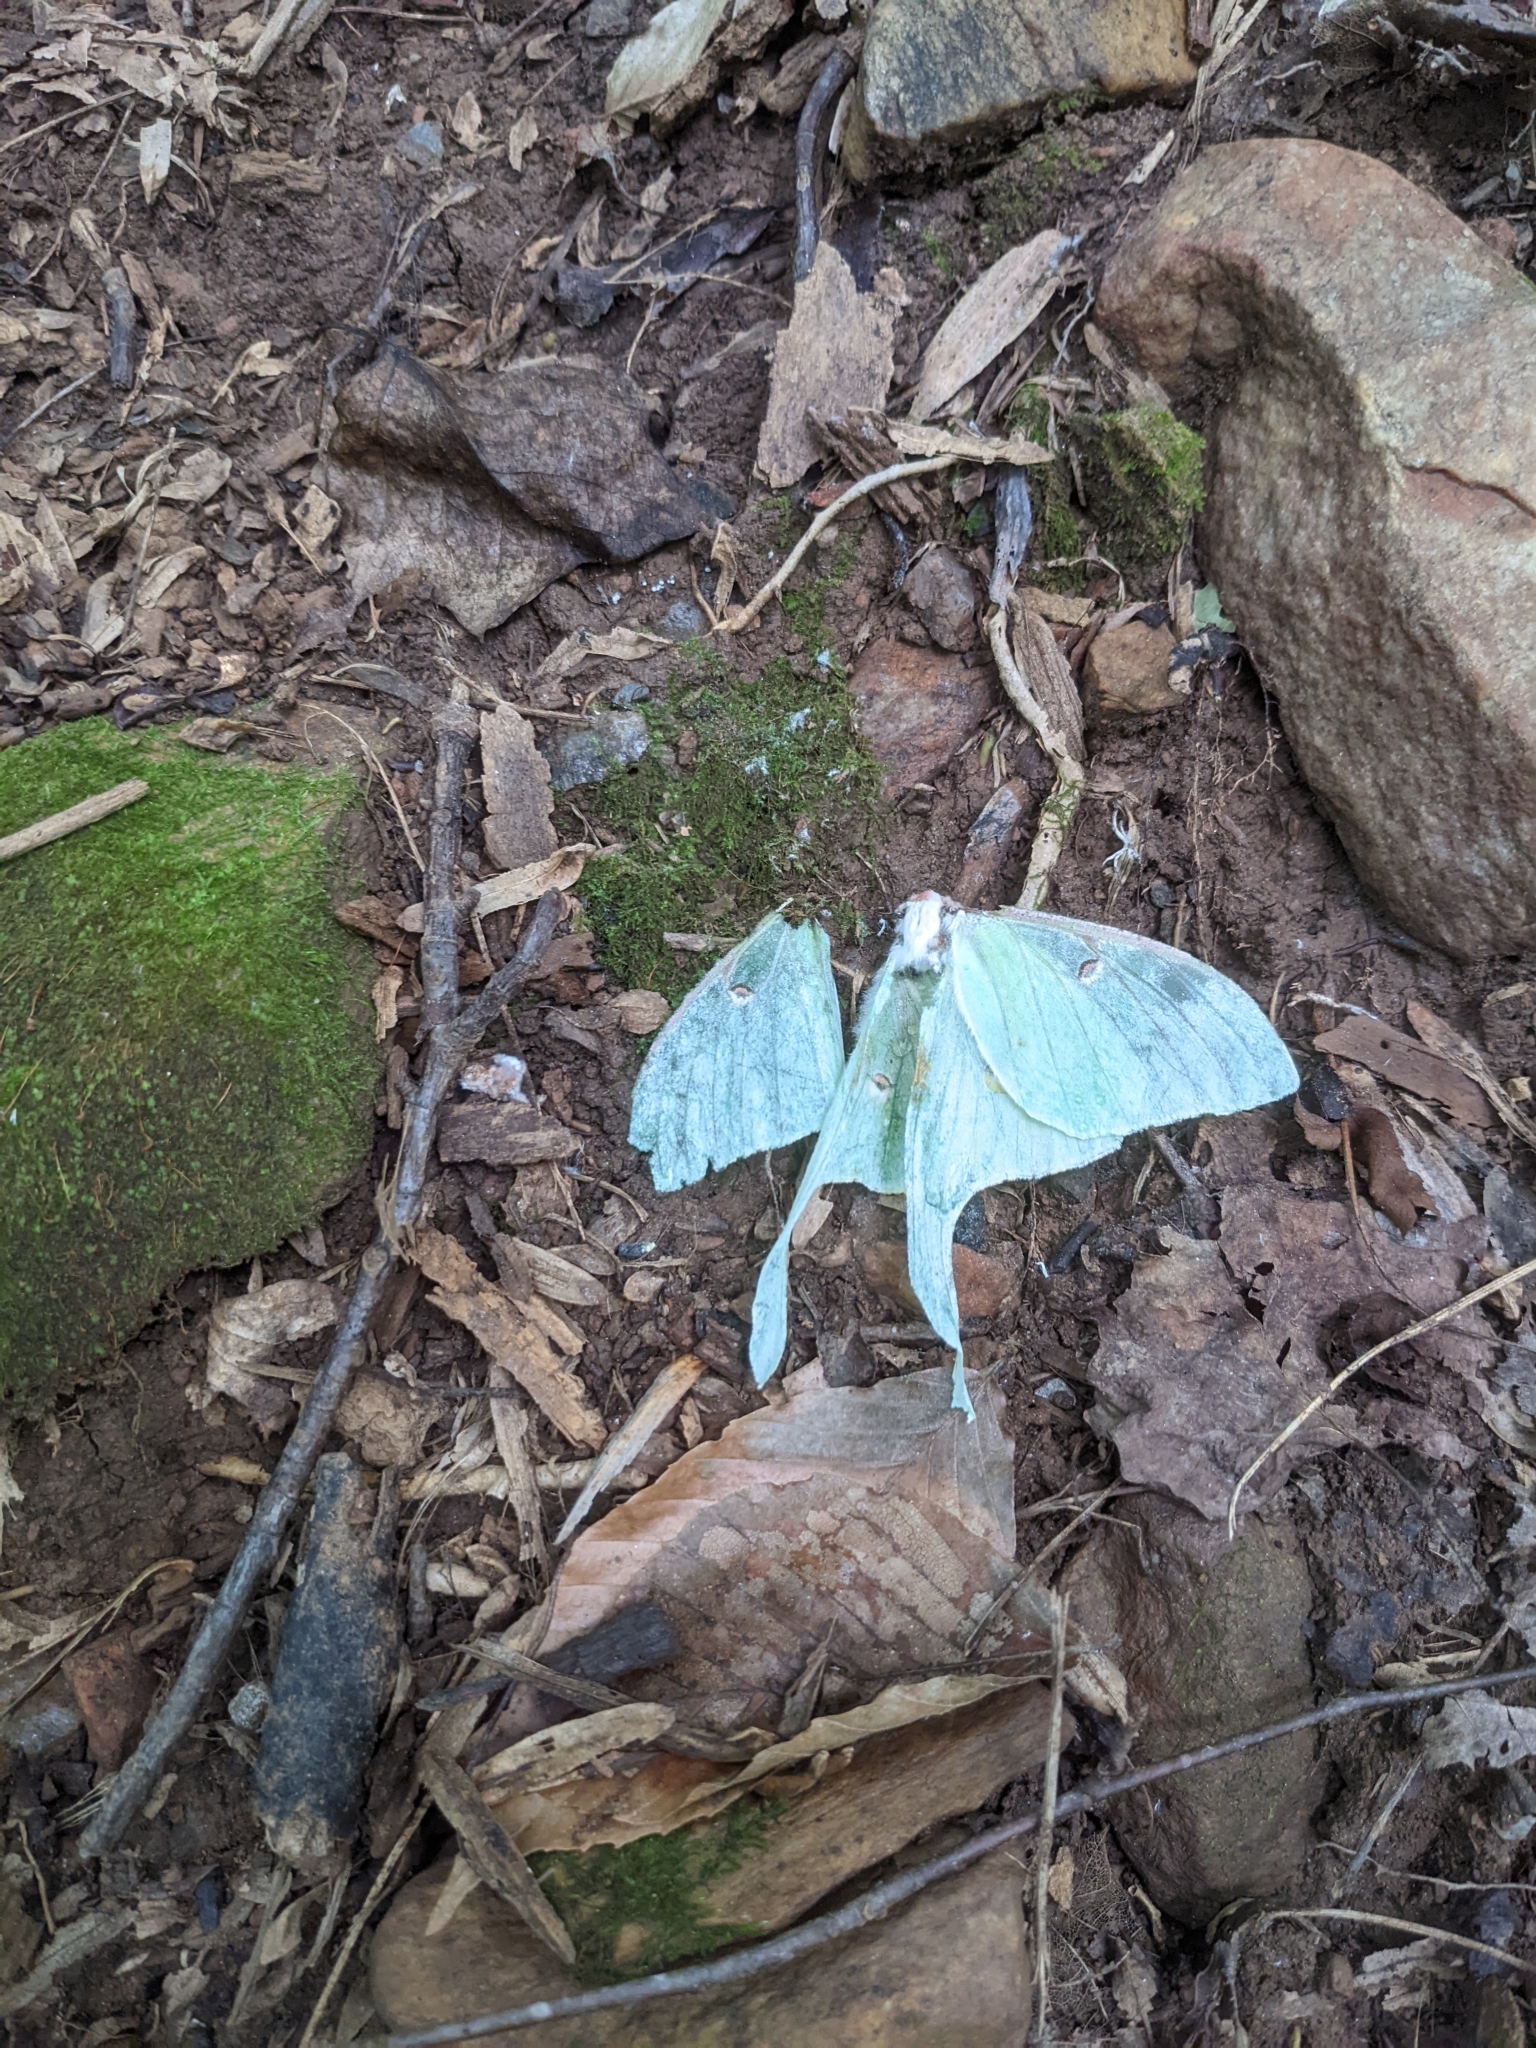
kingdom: Animalia
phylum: Arthropoda
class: Insecta
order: Lepidoptera
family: Saturniidae
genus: Actias
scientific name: Actias luna
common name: Luna moth
